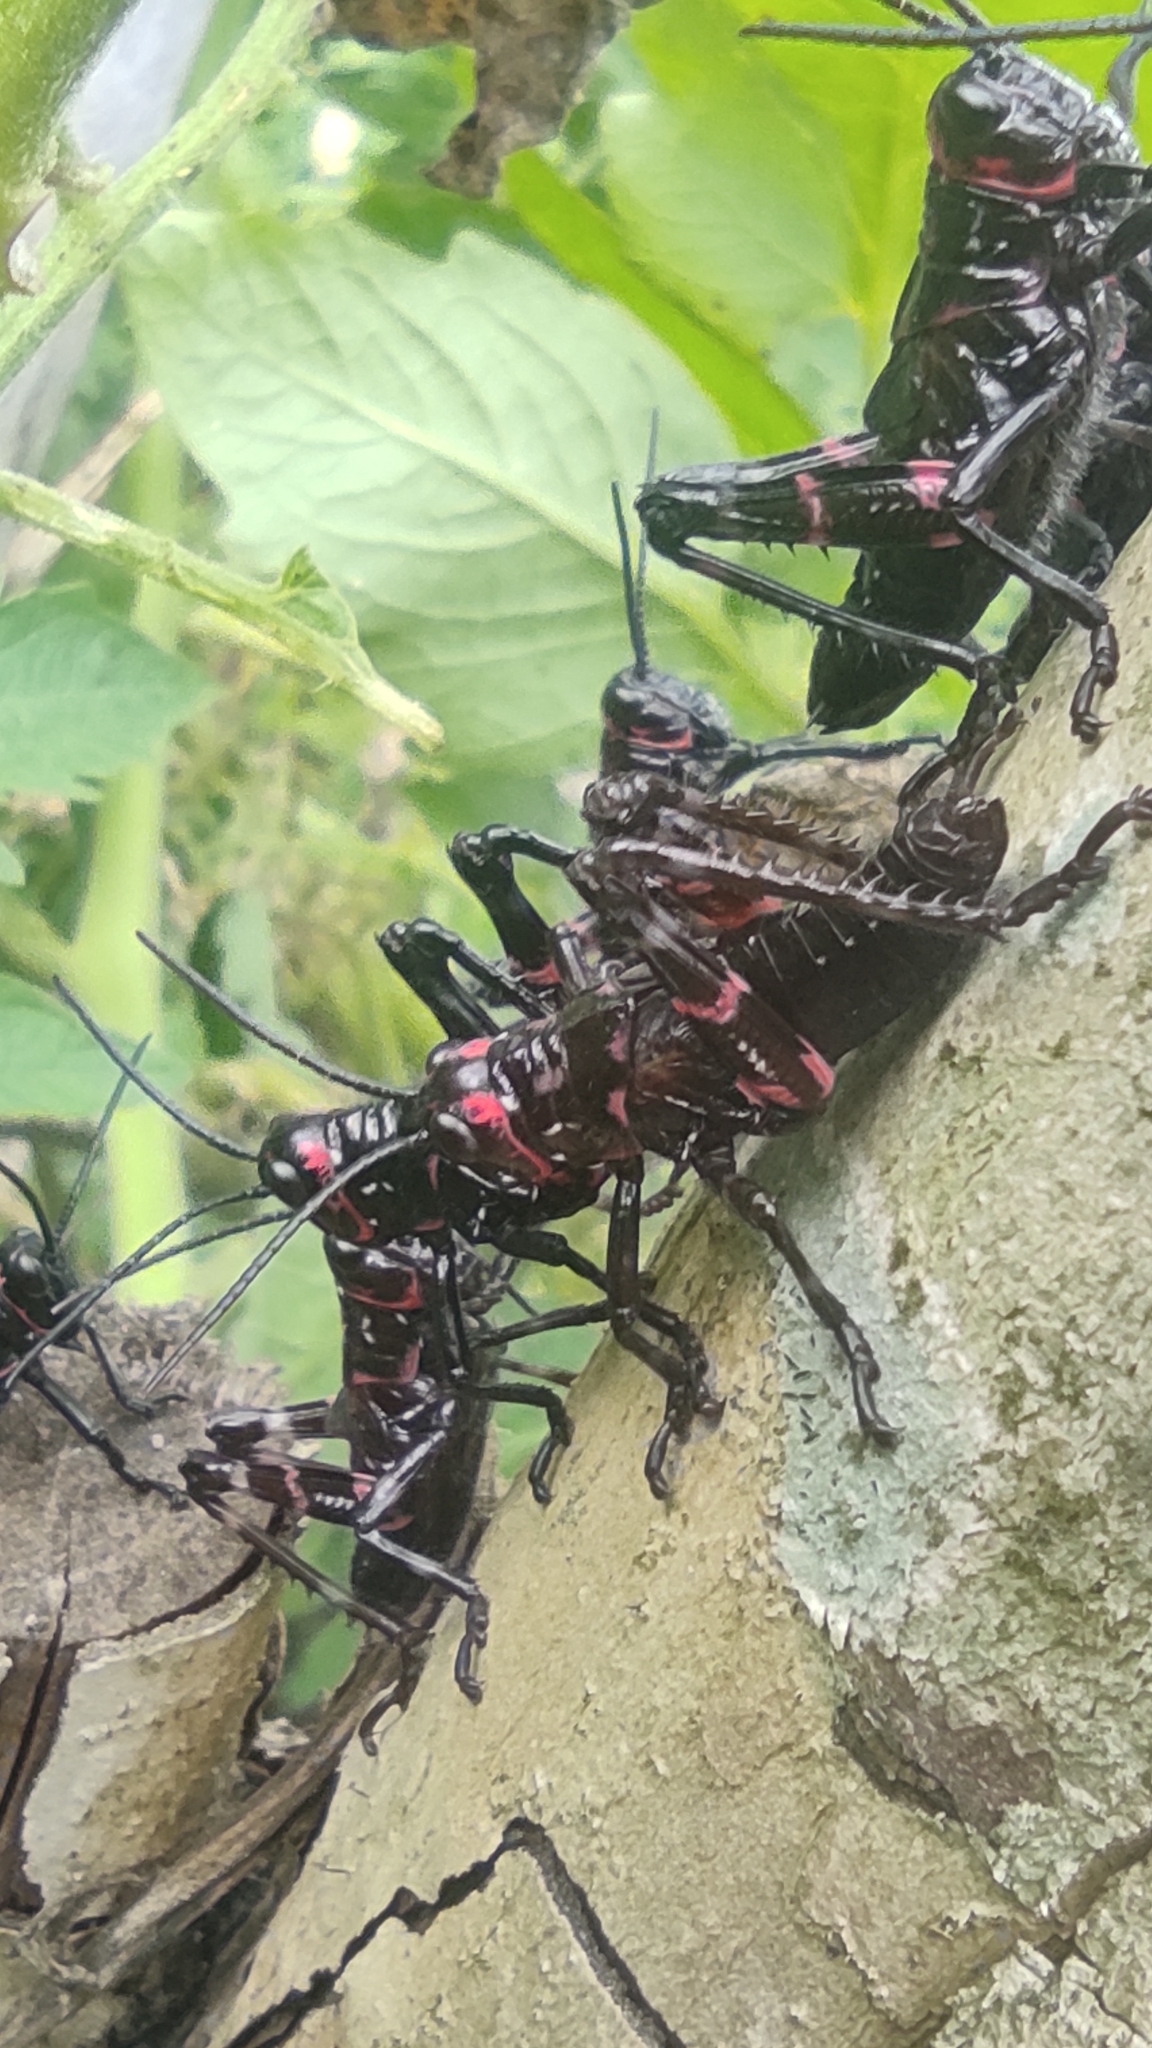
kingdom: Animalia
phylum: Arthropoda
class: Insecta
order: Orthoptera
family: Romaleidae
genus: Chromacris
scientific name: Chromacris speciosa
